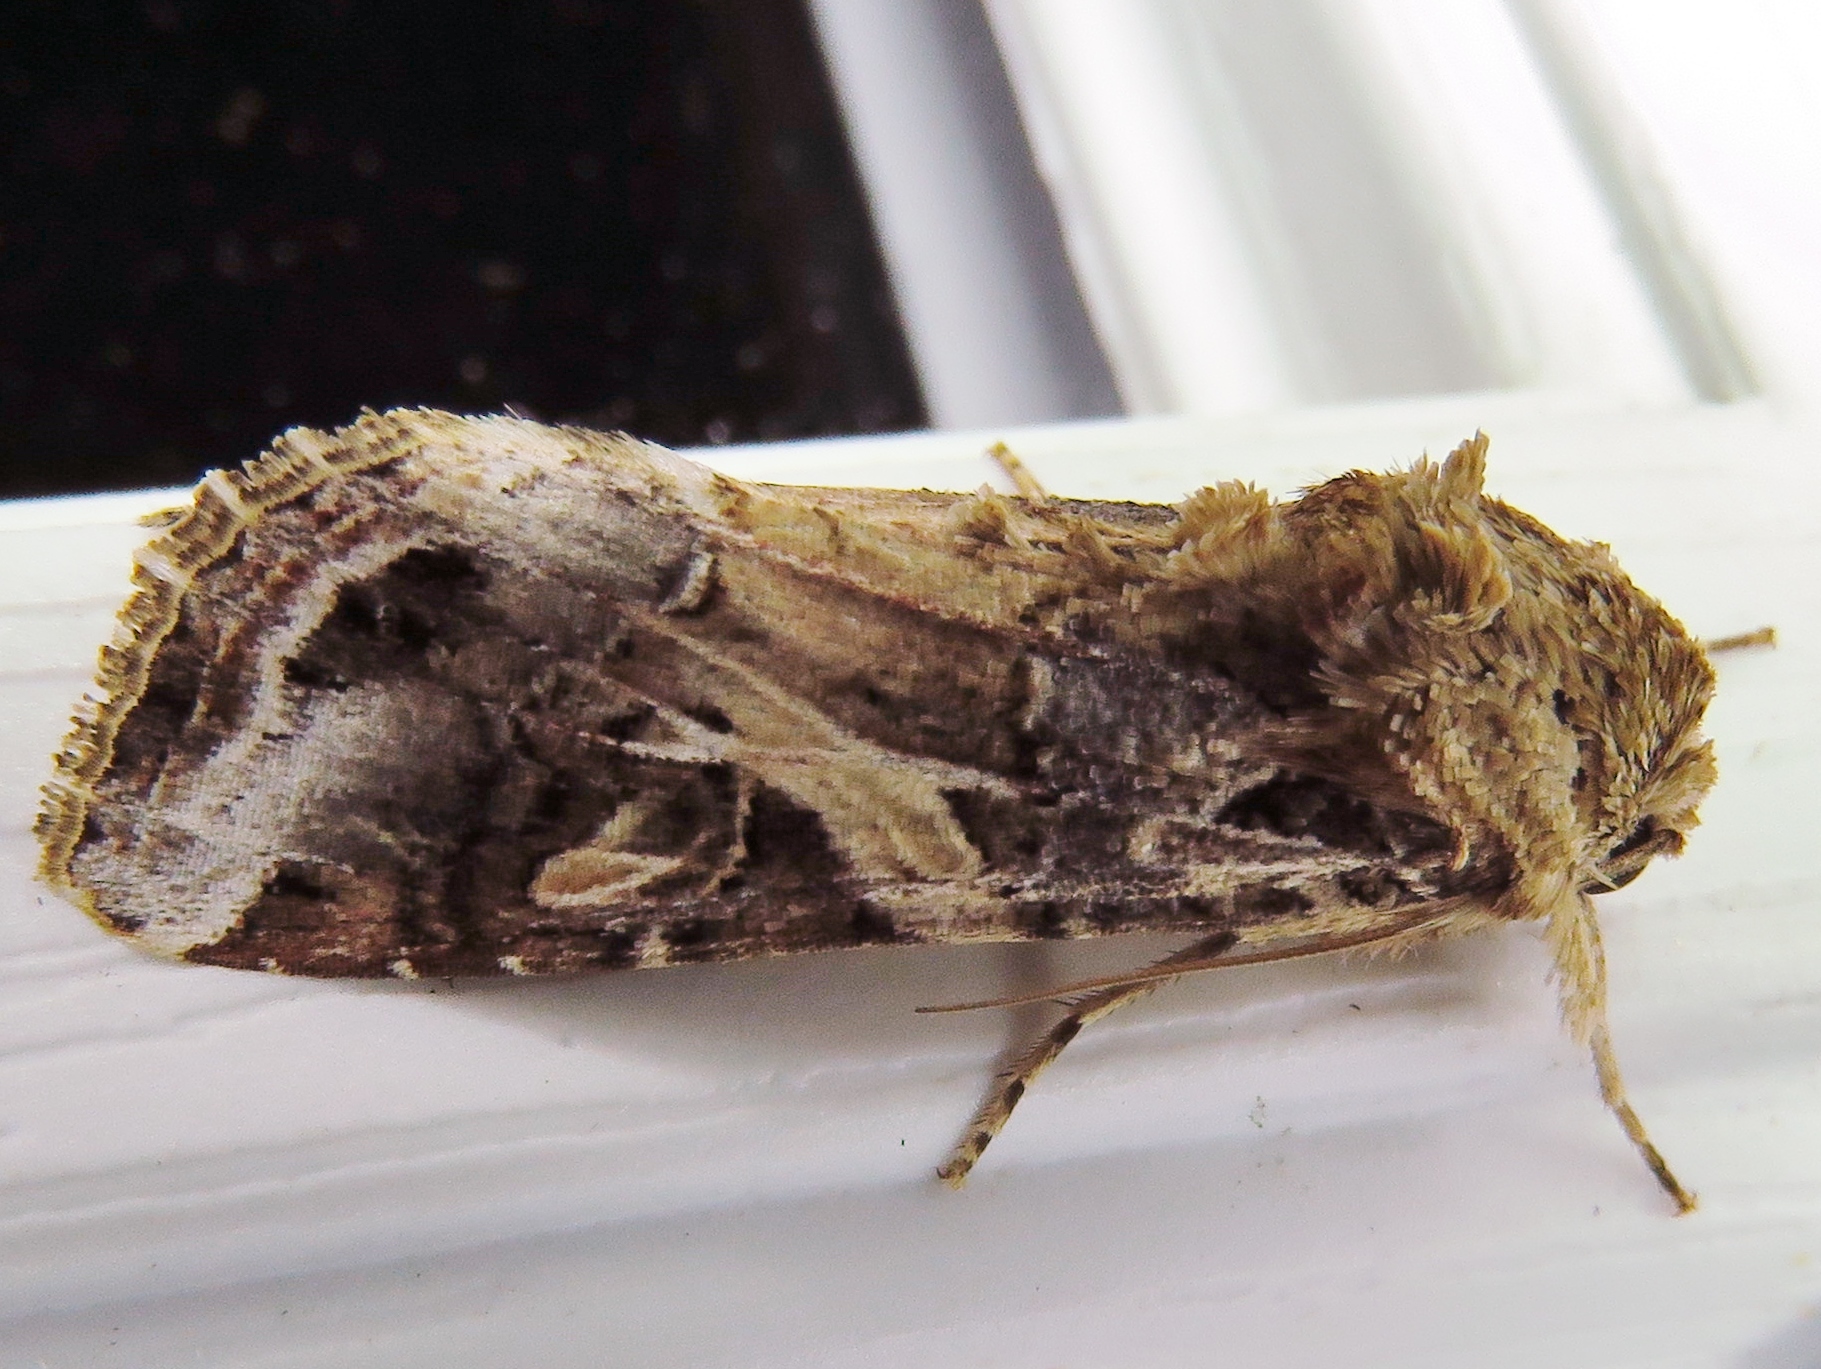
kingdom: Animalia
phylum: Arthropoda
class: Insecta
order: Lepidoptera
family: Noctuidae
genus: Spodoptera
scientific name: Spodoptera ornithogalli
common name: Yellow-striped armyworm
